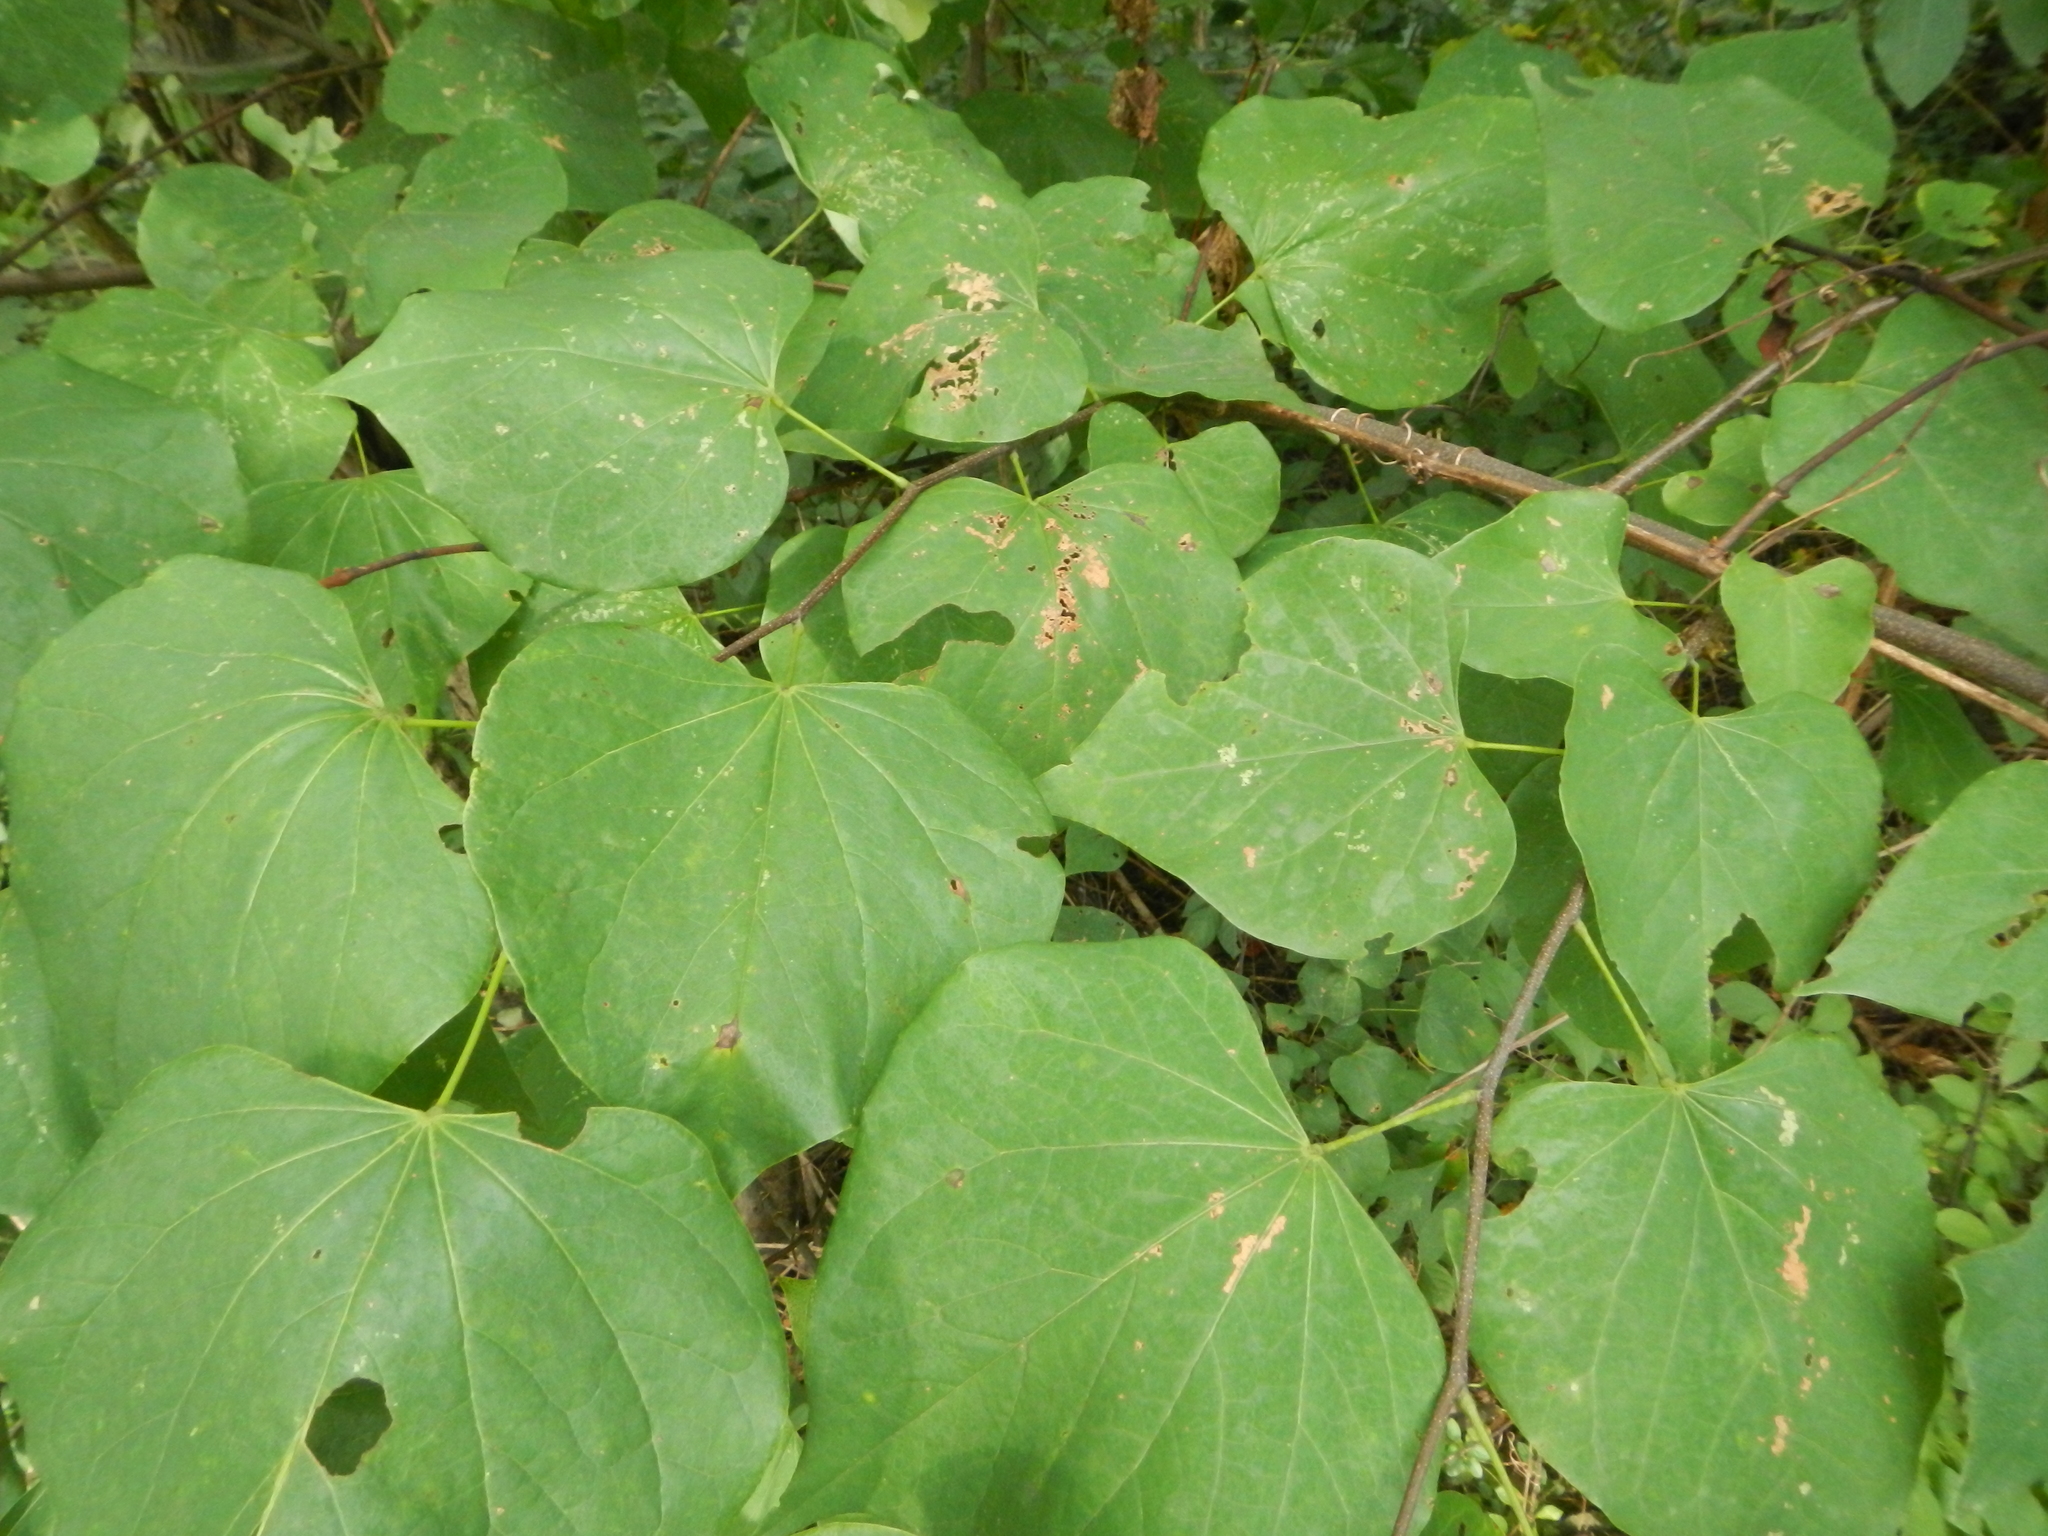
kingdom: Plantae
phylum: Tracheophyta
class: Magnoliopsida
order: Fabales
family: Fabaceae
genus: Cercis
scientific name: Cercis canadensis
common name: Eastern redbud
